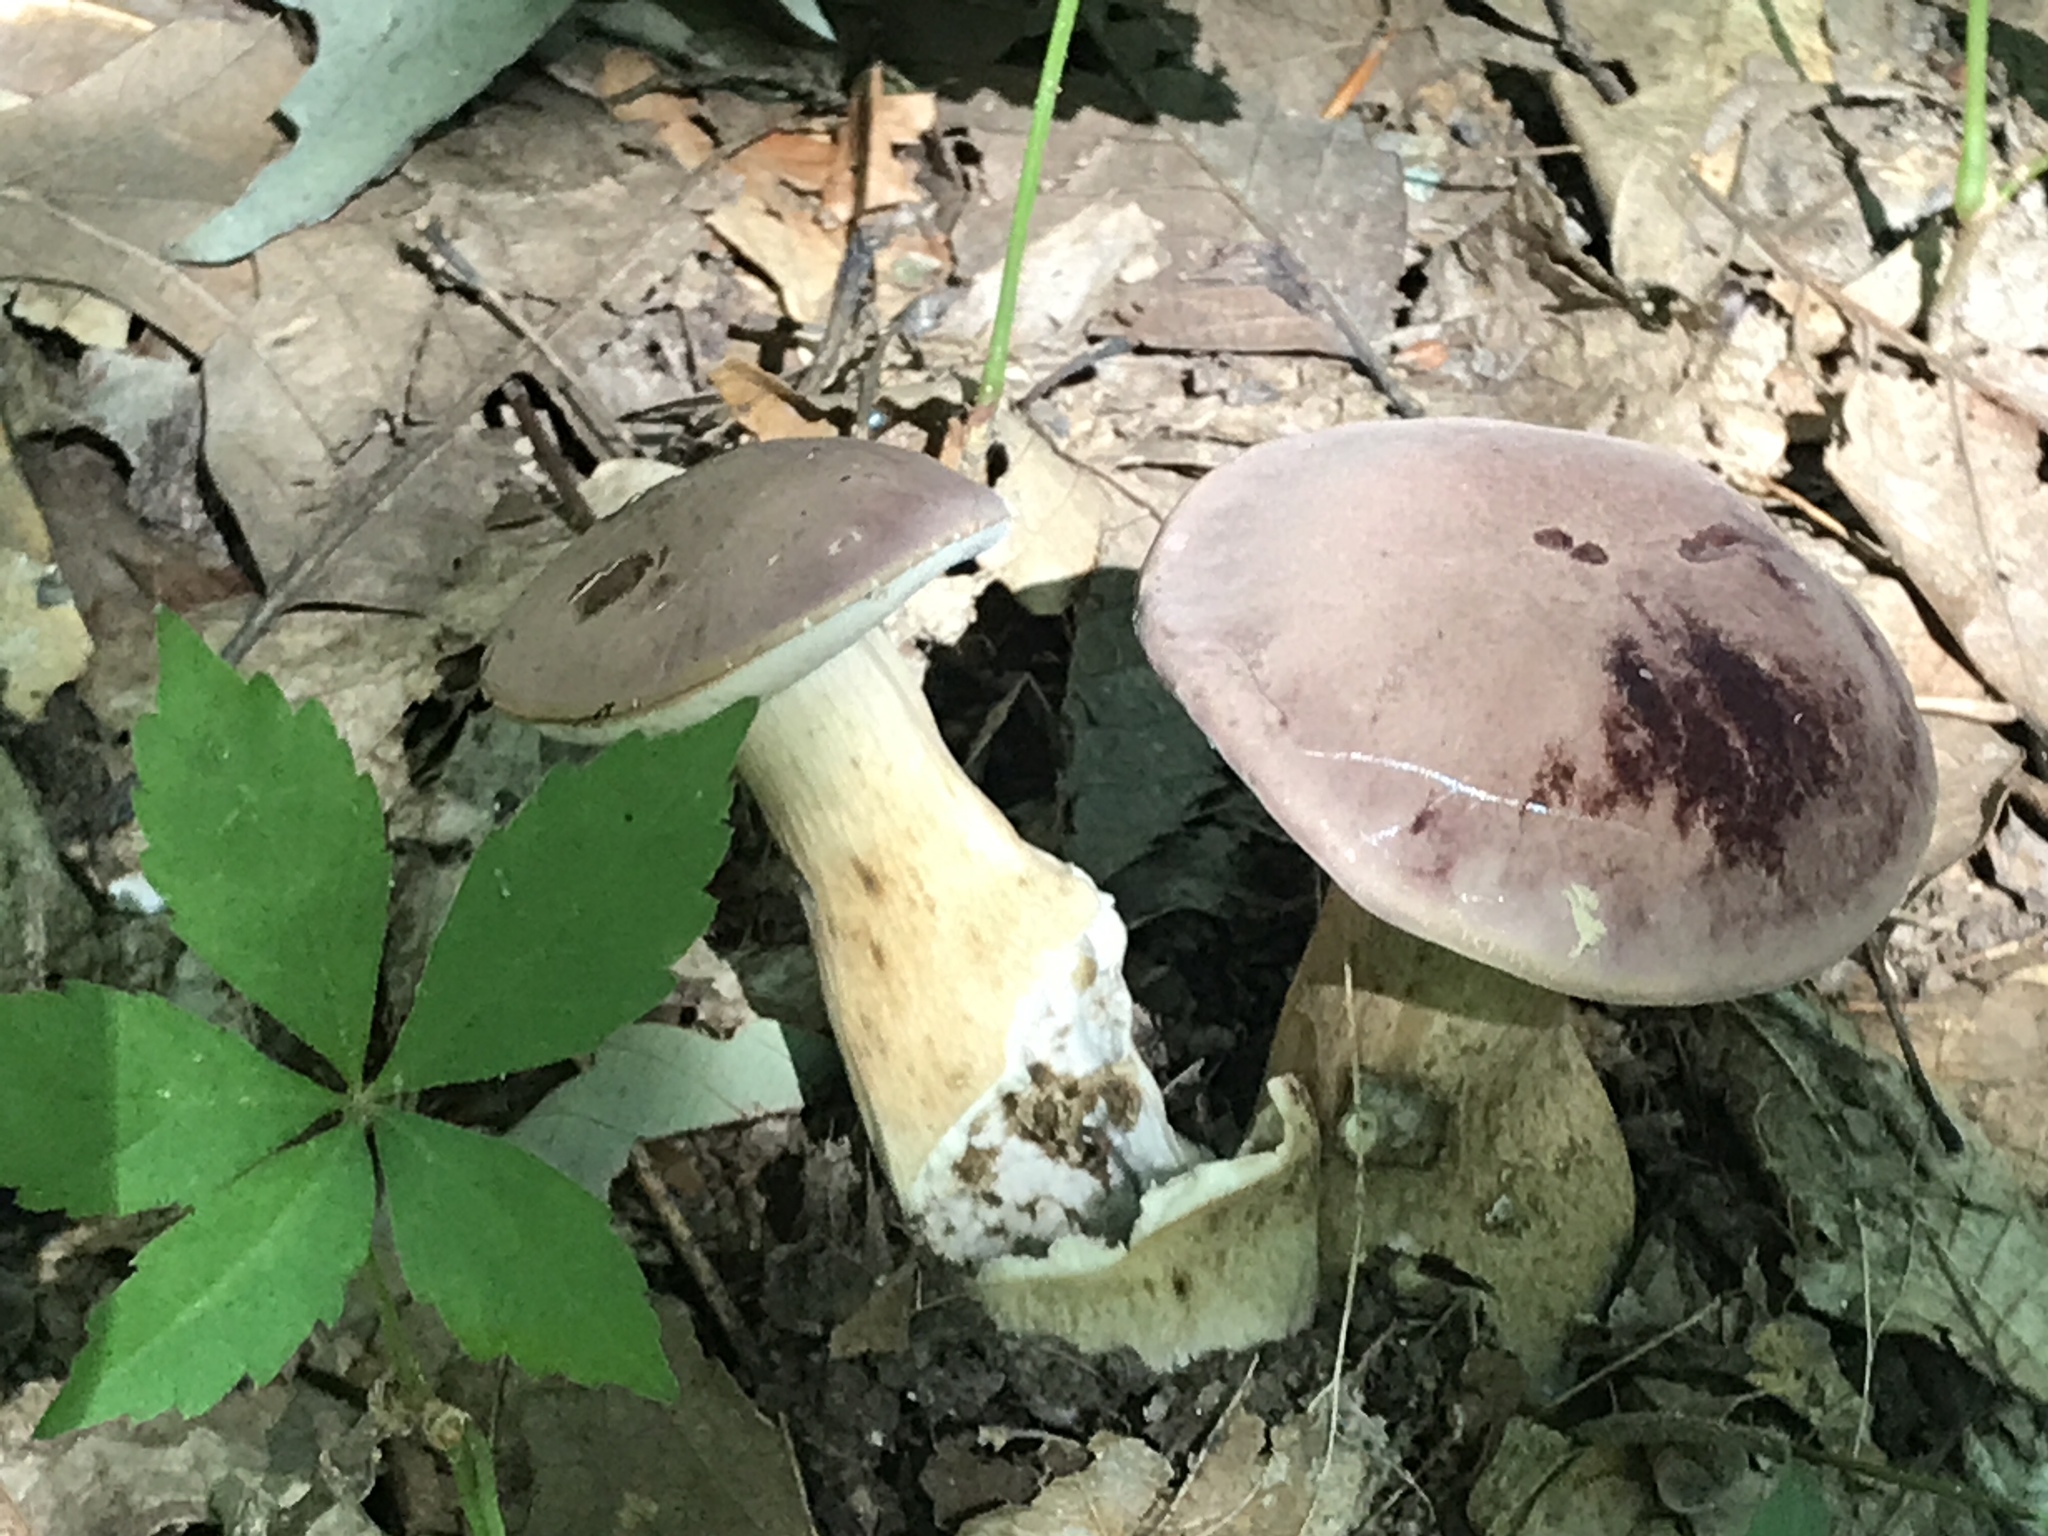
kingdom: Fungi
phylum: Basidiomycota
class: Agaricomycetes
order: Boletales
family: Boletaceae
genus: Tylopilus
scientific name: Tylopilus rubrobrunneus
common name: Reddish brown bitter bolete
